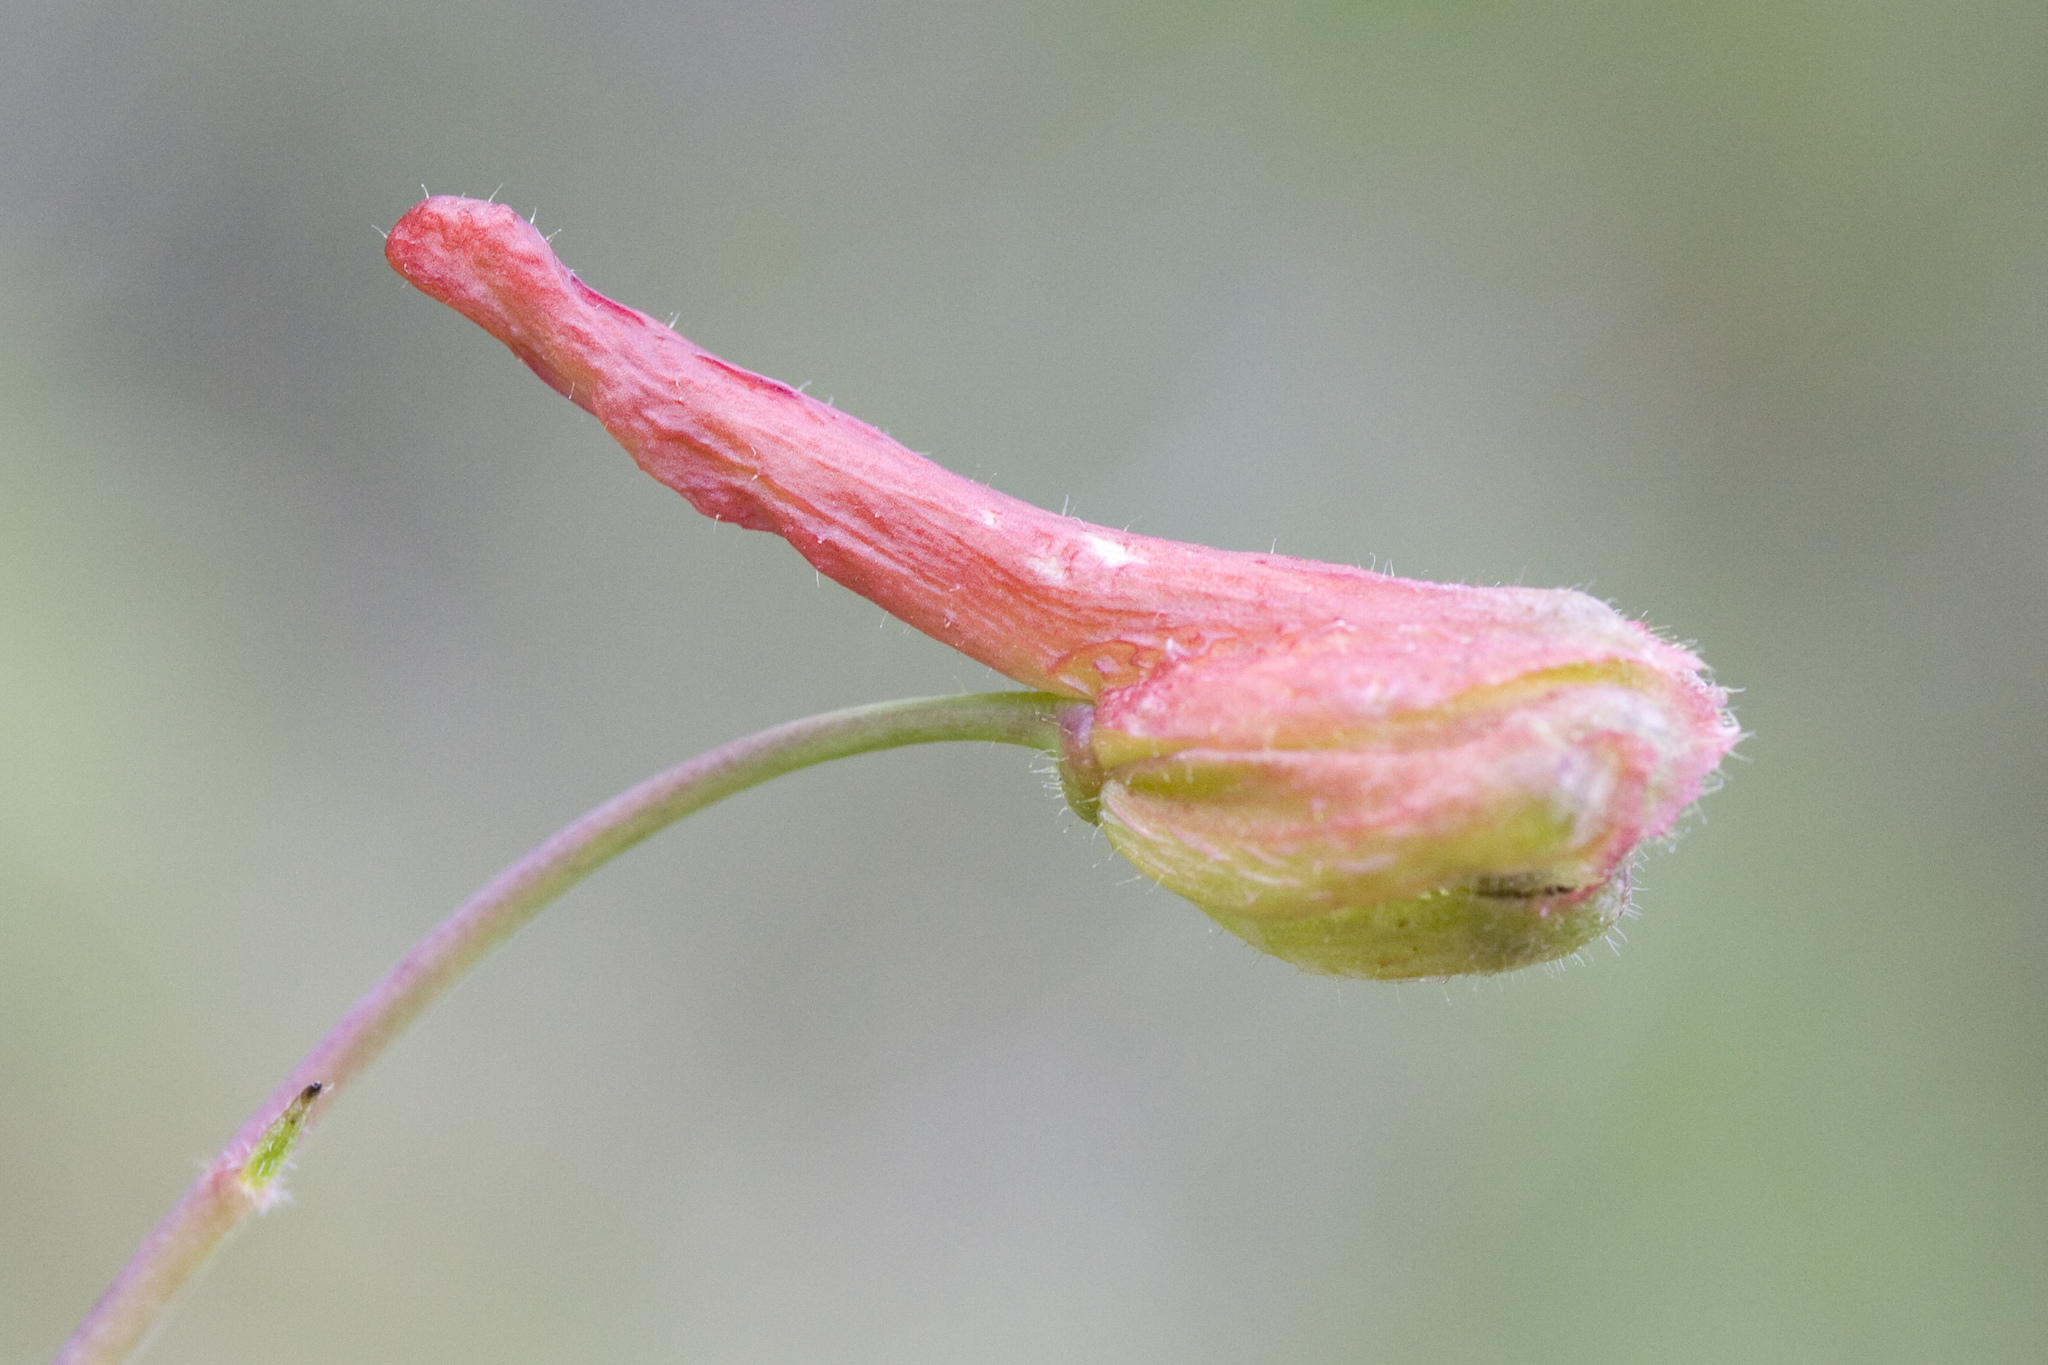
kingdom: Plantae
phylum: Tracheophyta
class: Magnoliopsida
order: Ranunculales
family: Ranunculaceae
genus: Delphinium
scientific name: Delphinium nudicaule
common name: Red larkspur
